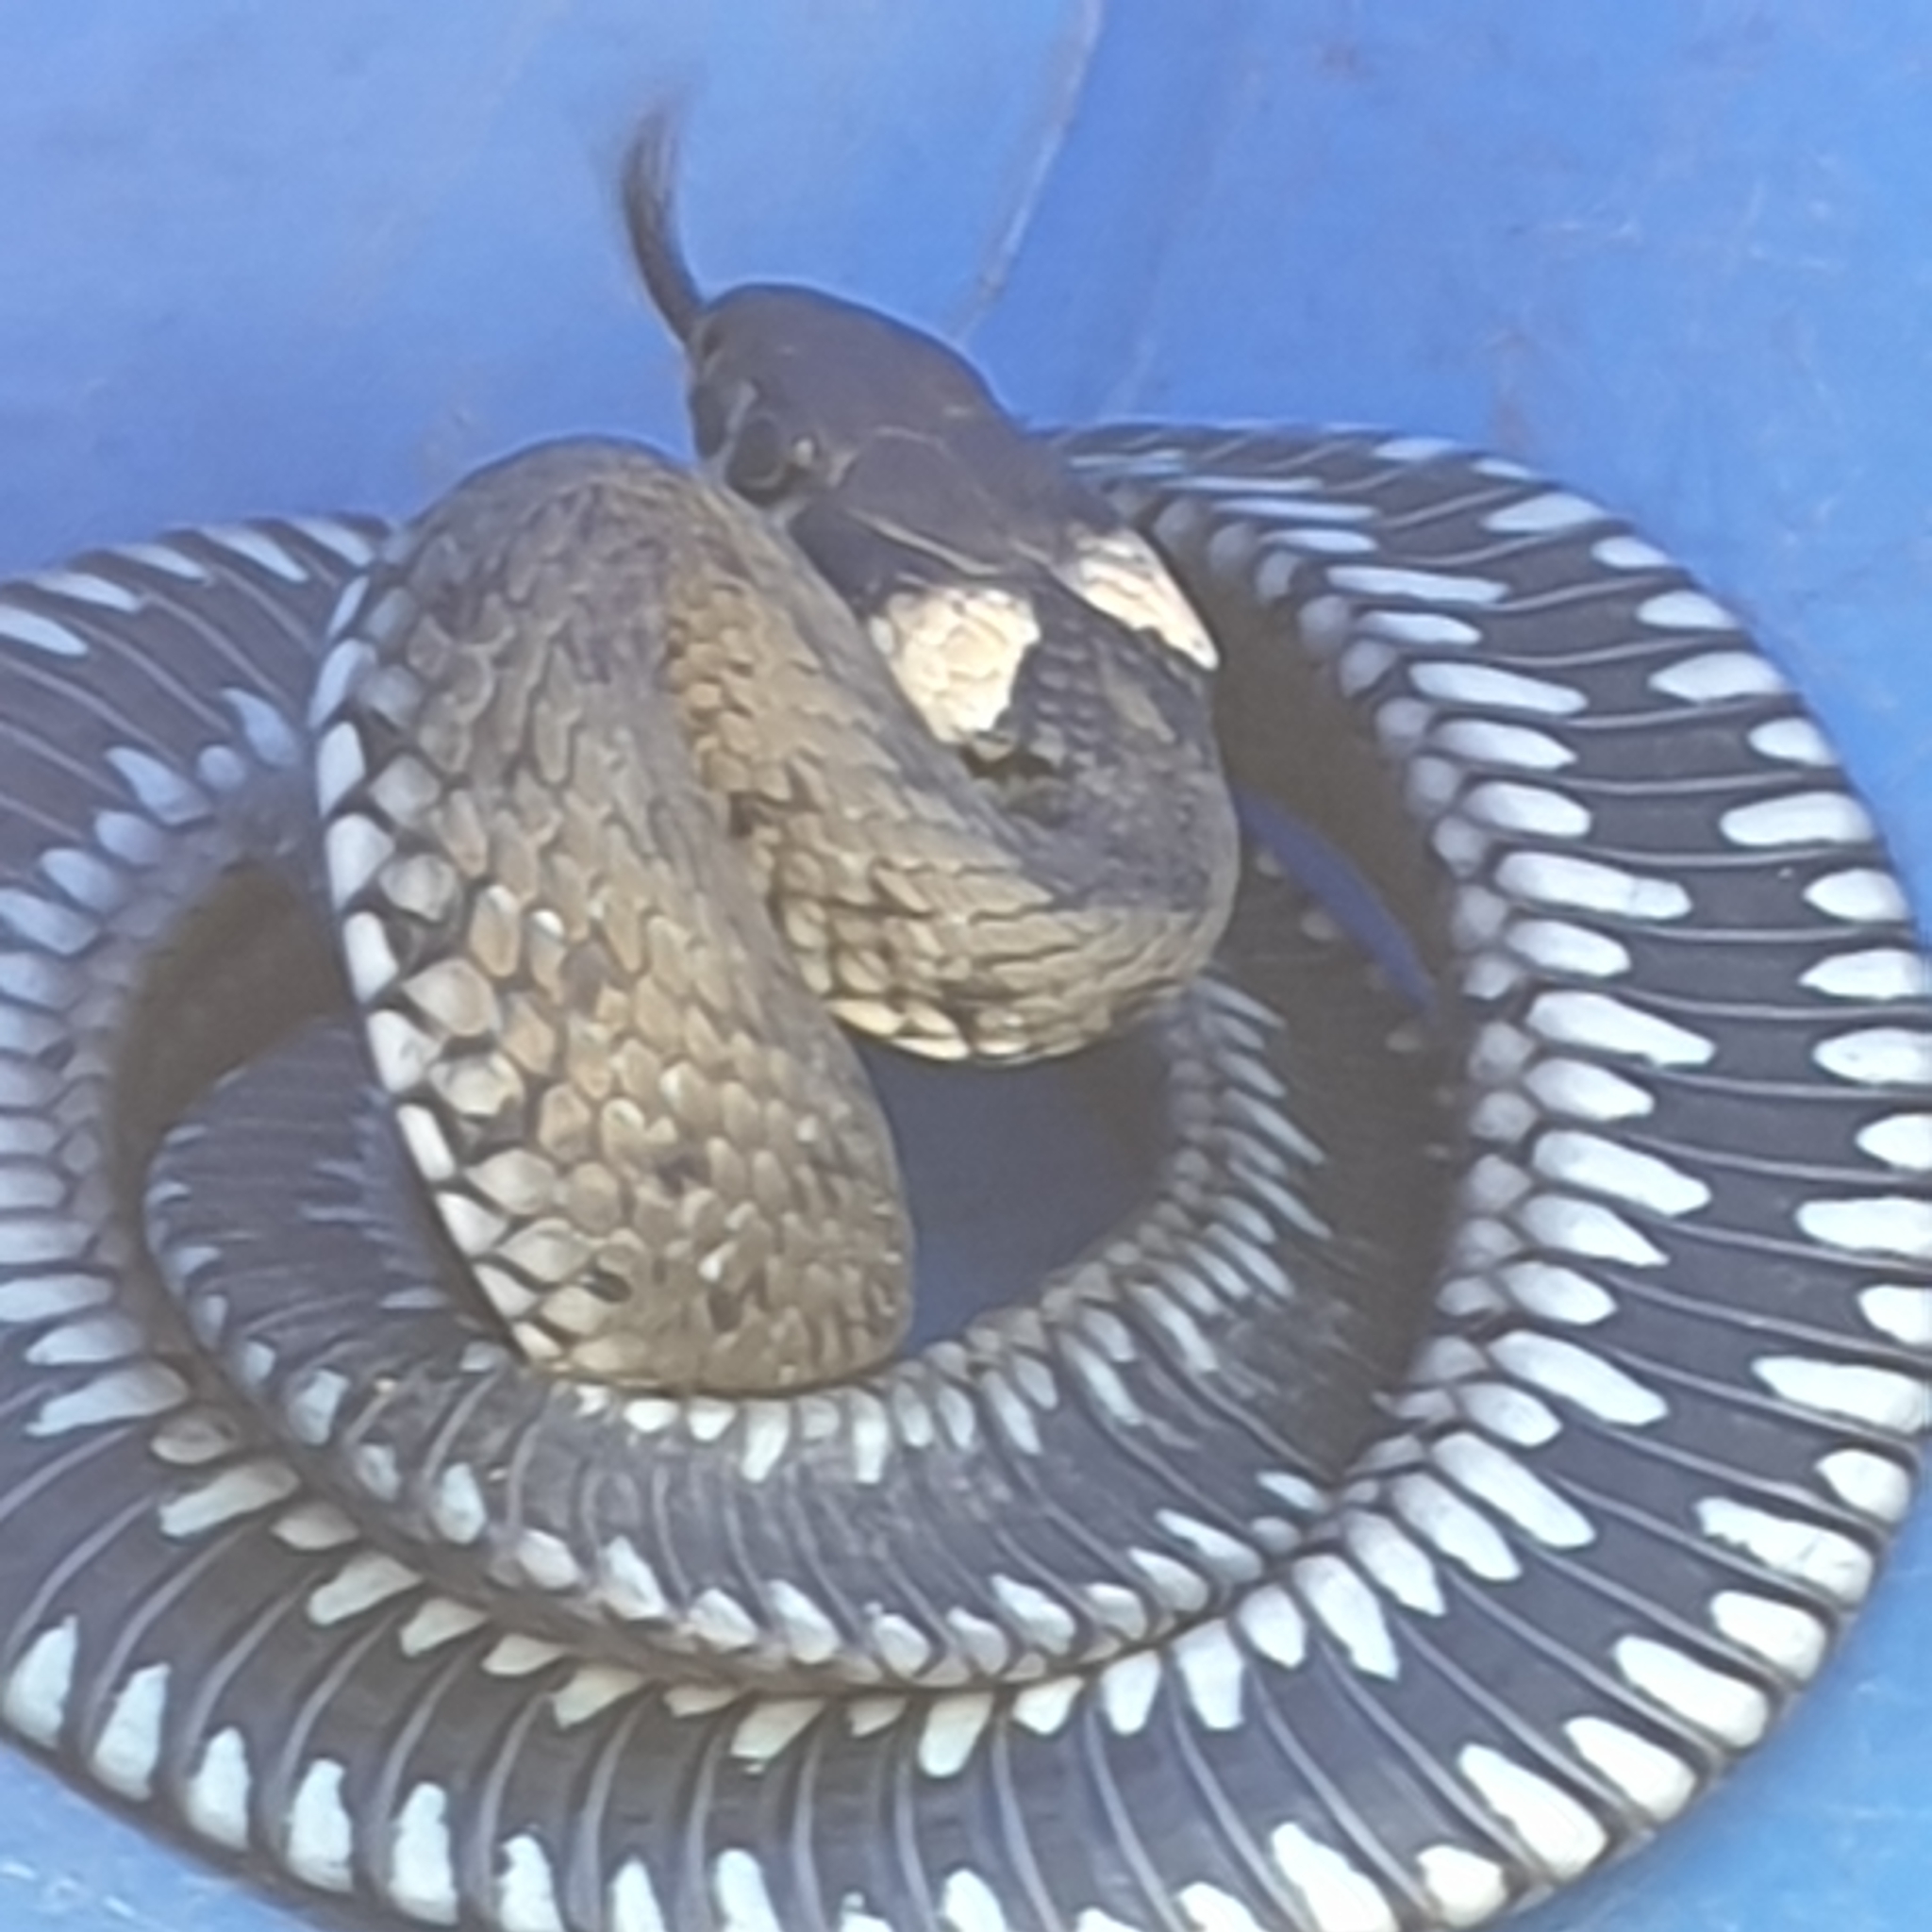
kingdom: Animalia
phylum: Chordata
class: Squamata
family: Colubridae
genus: Natrix
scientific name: Natrix natrix
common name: Grass snake
